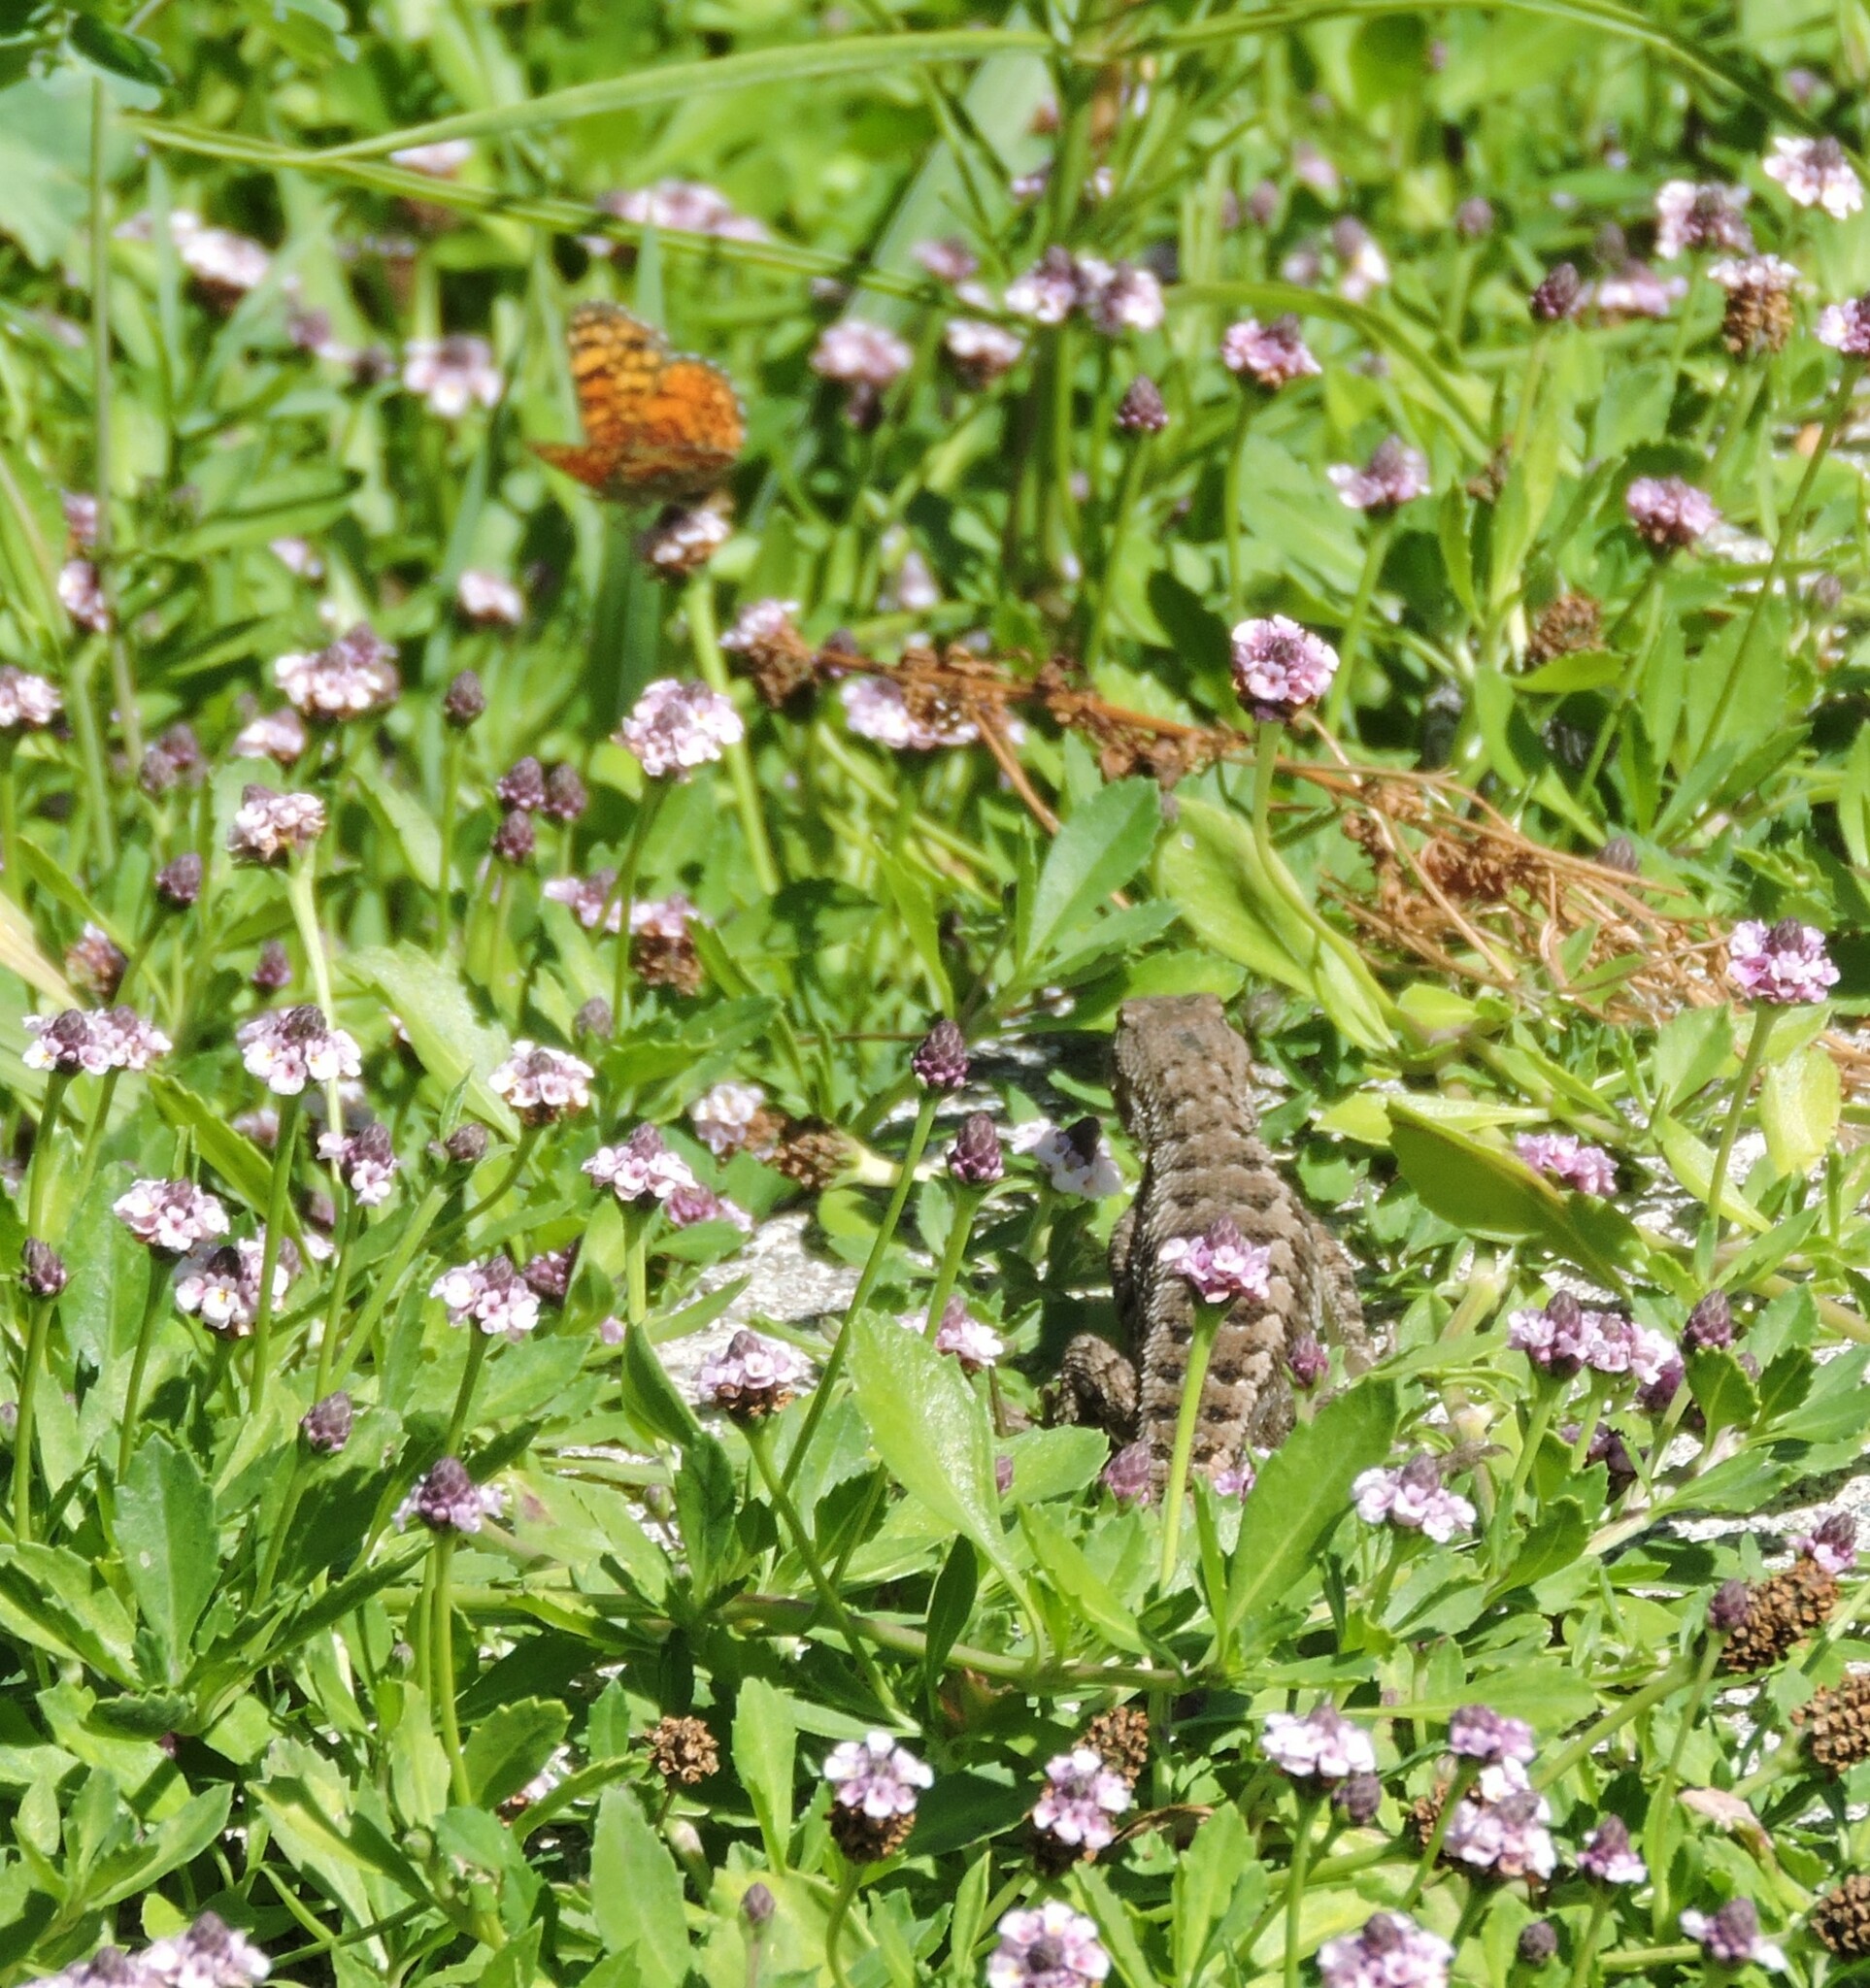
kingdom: Animalia
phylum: Chordata
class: Squamata
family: Phrynosomatidae
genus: Sceloporus
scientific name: Sceloporus occidentalis
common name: Western fence lizard
